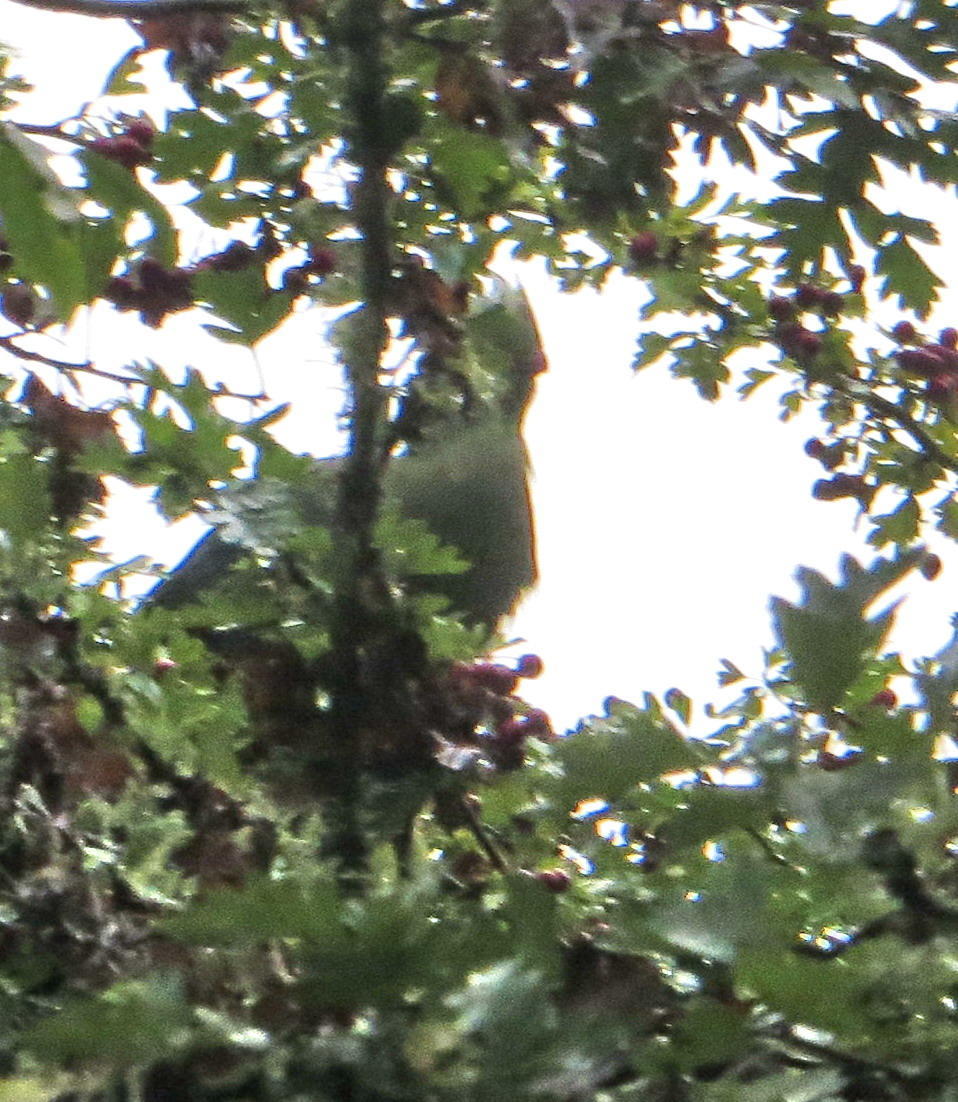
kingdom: Animalia
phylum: Chordata
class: Aves
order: Musophagiformes
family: Musophagidae
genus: Tauraco
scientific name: Tauraco corythaix
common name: Knysna turaco
